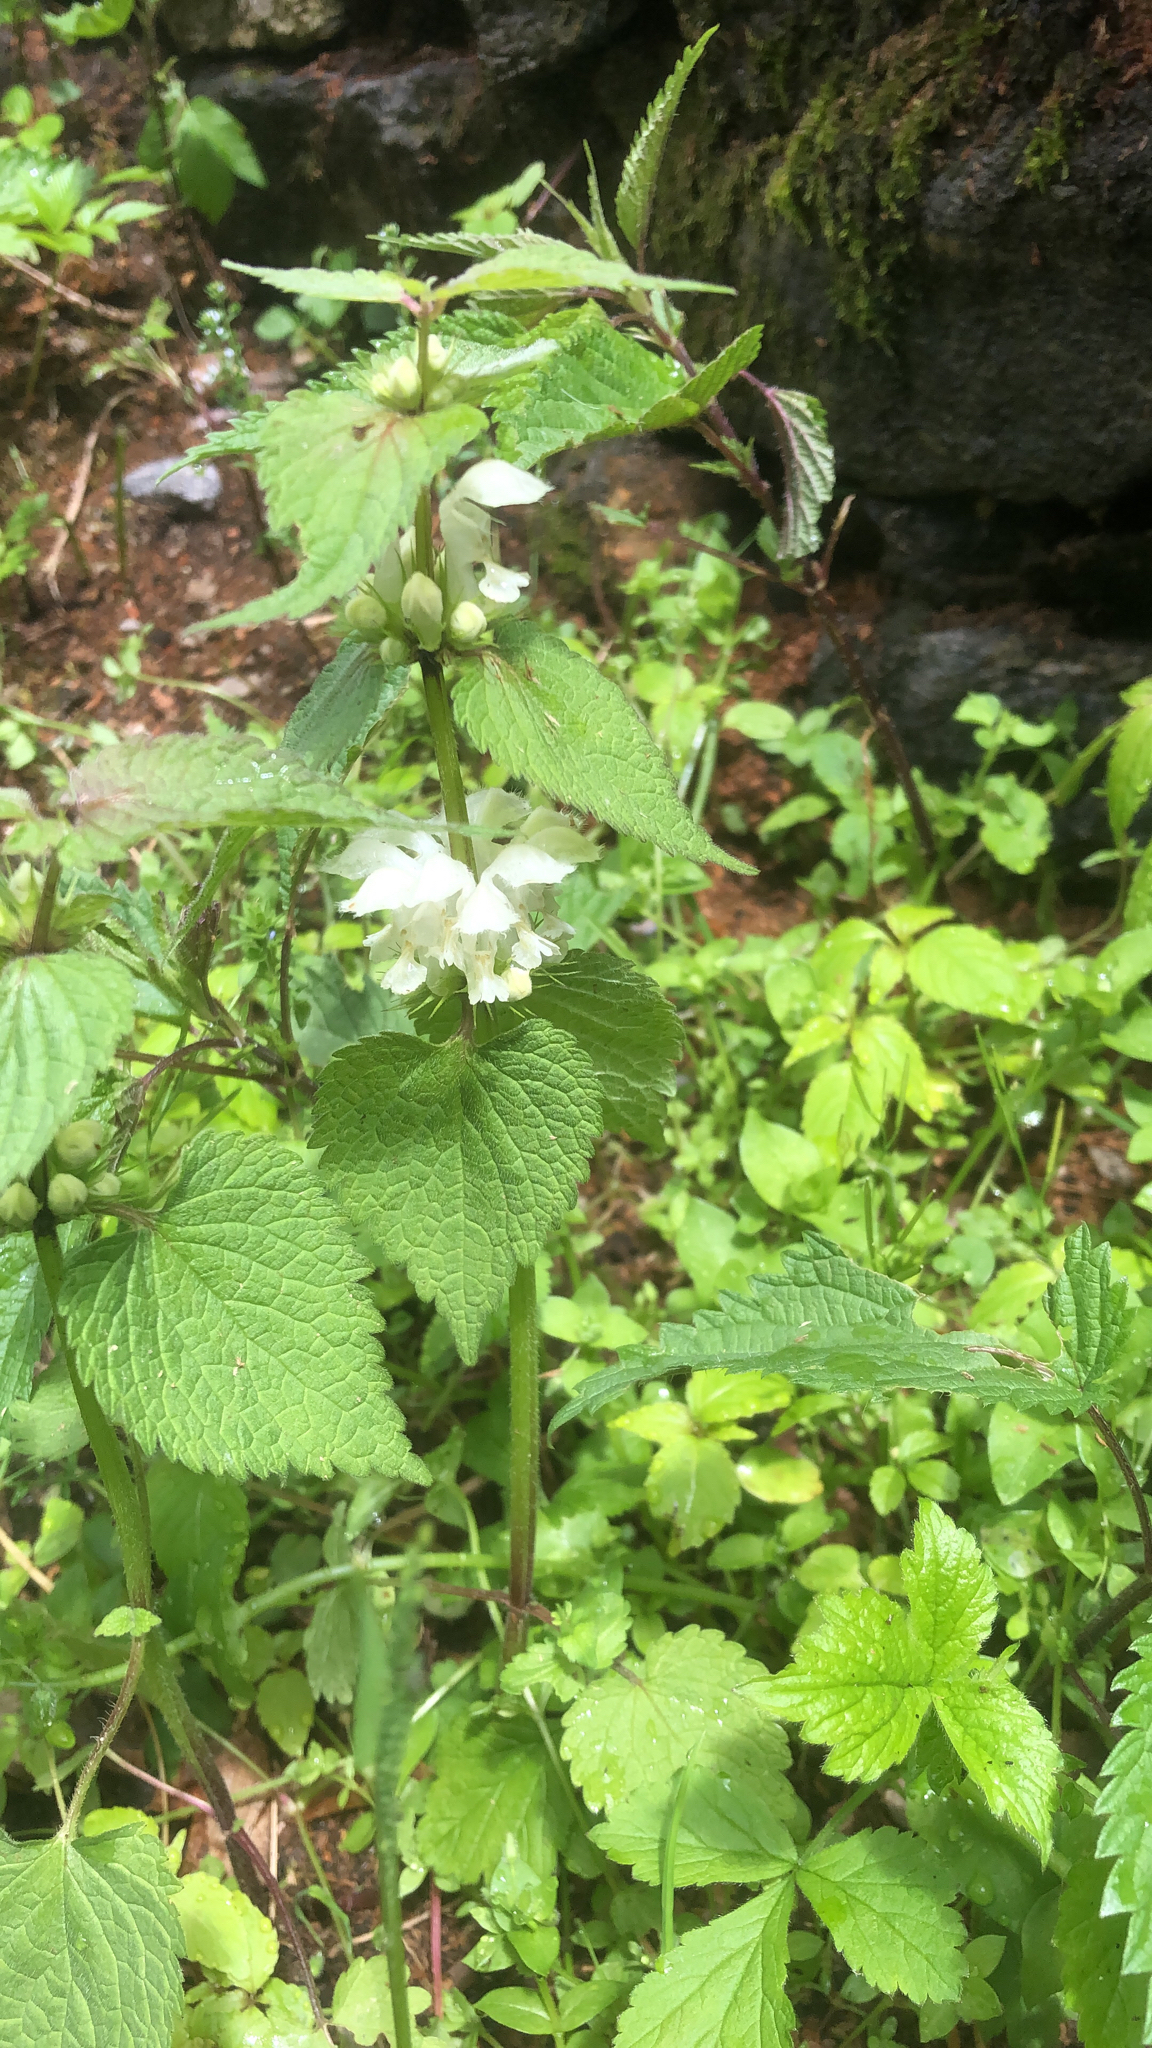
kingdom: Plantae
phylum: Tracheophyta
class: Magnoliopsida
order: Lamiales
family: Lamiaceae
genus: Lamium
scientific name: Lamium album
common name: White dead-nettle
